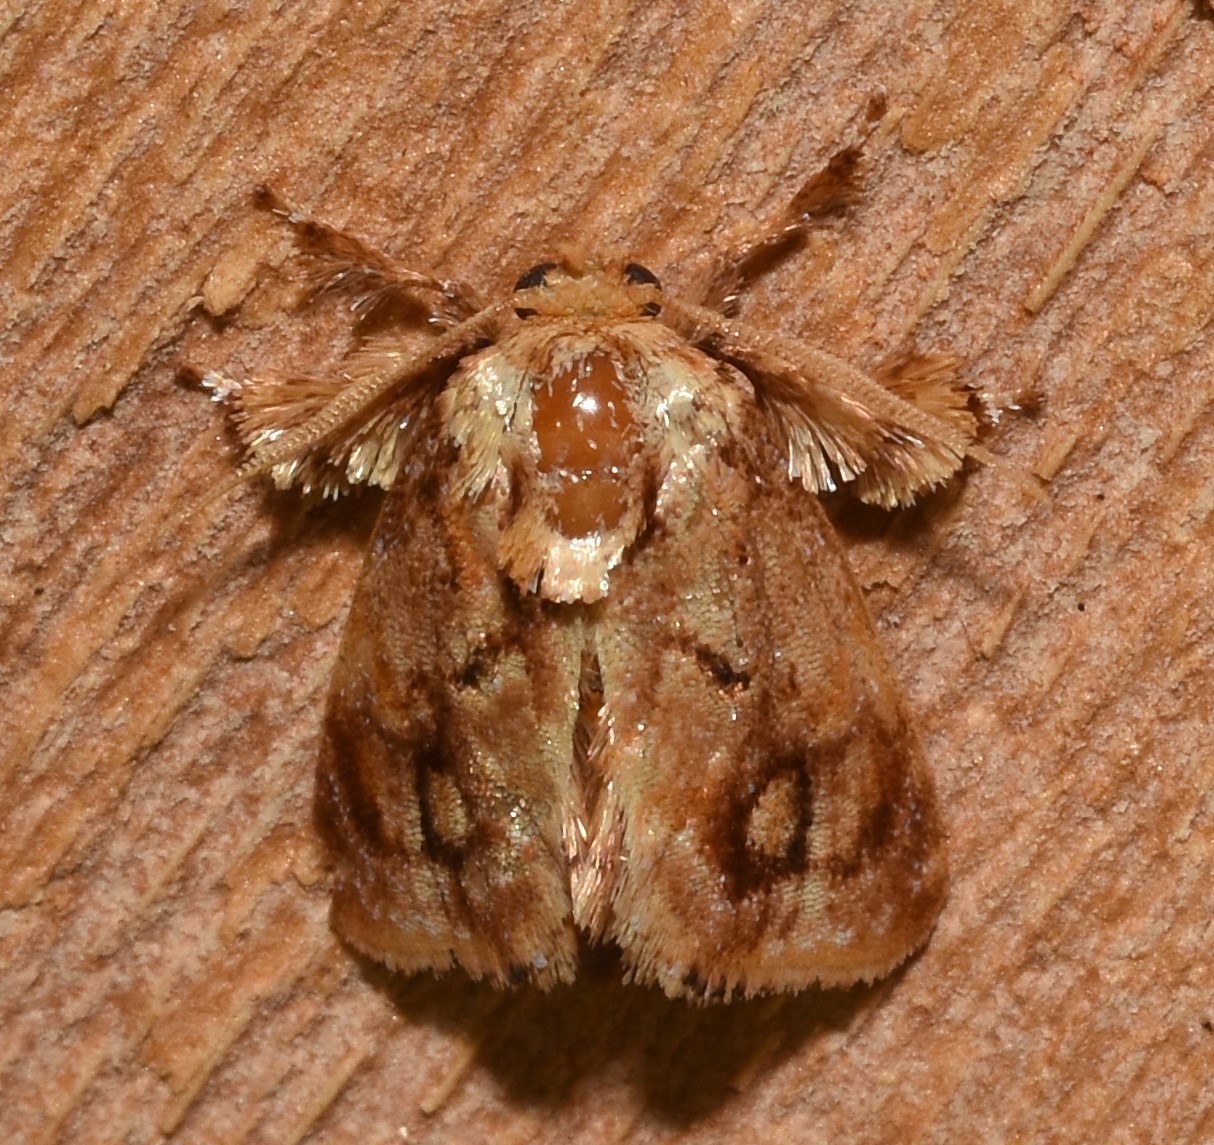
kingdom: Animalia
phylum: Arthropoda
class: Insecta
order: Lepidoptera
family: Limacodidae
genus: Isochaetes
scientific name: Isochaetes beutenmuelleri
